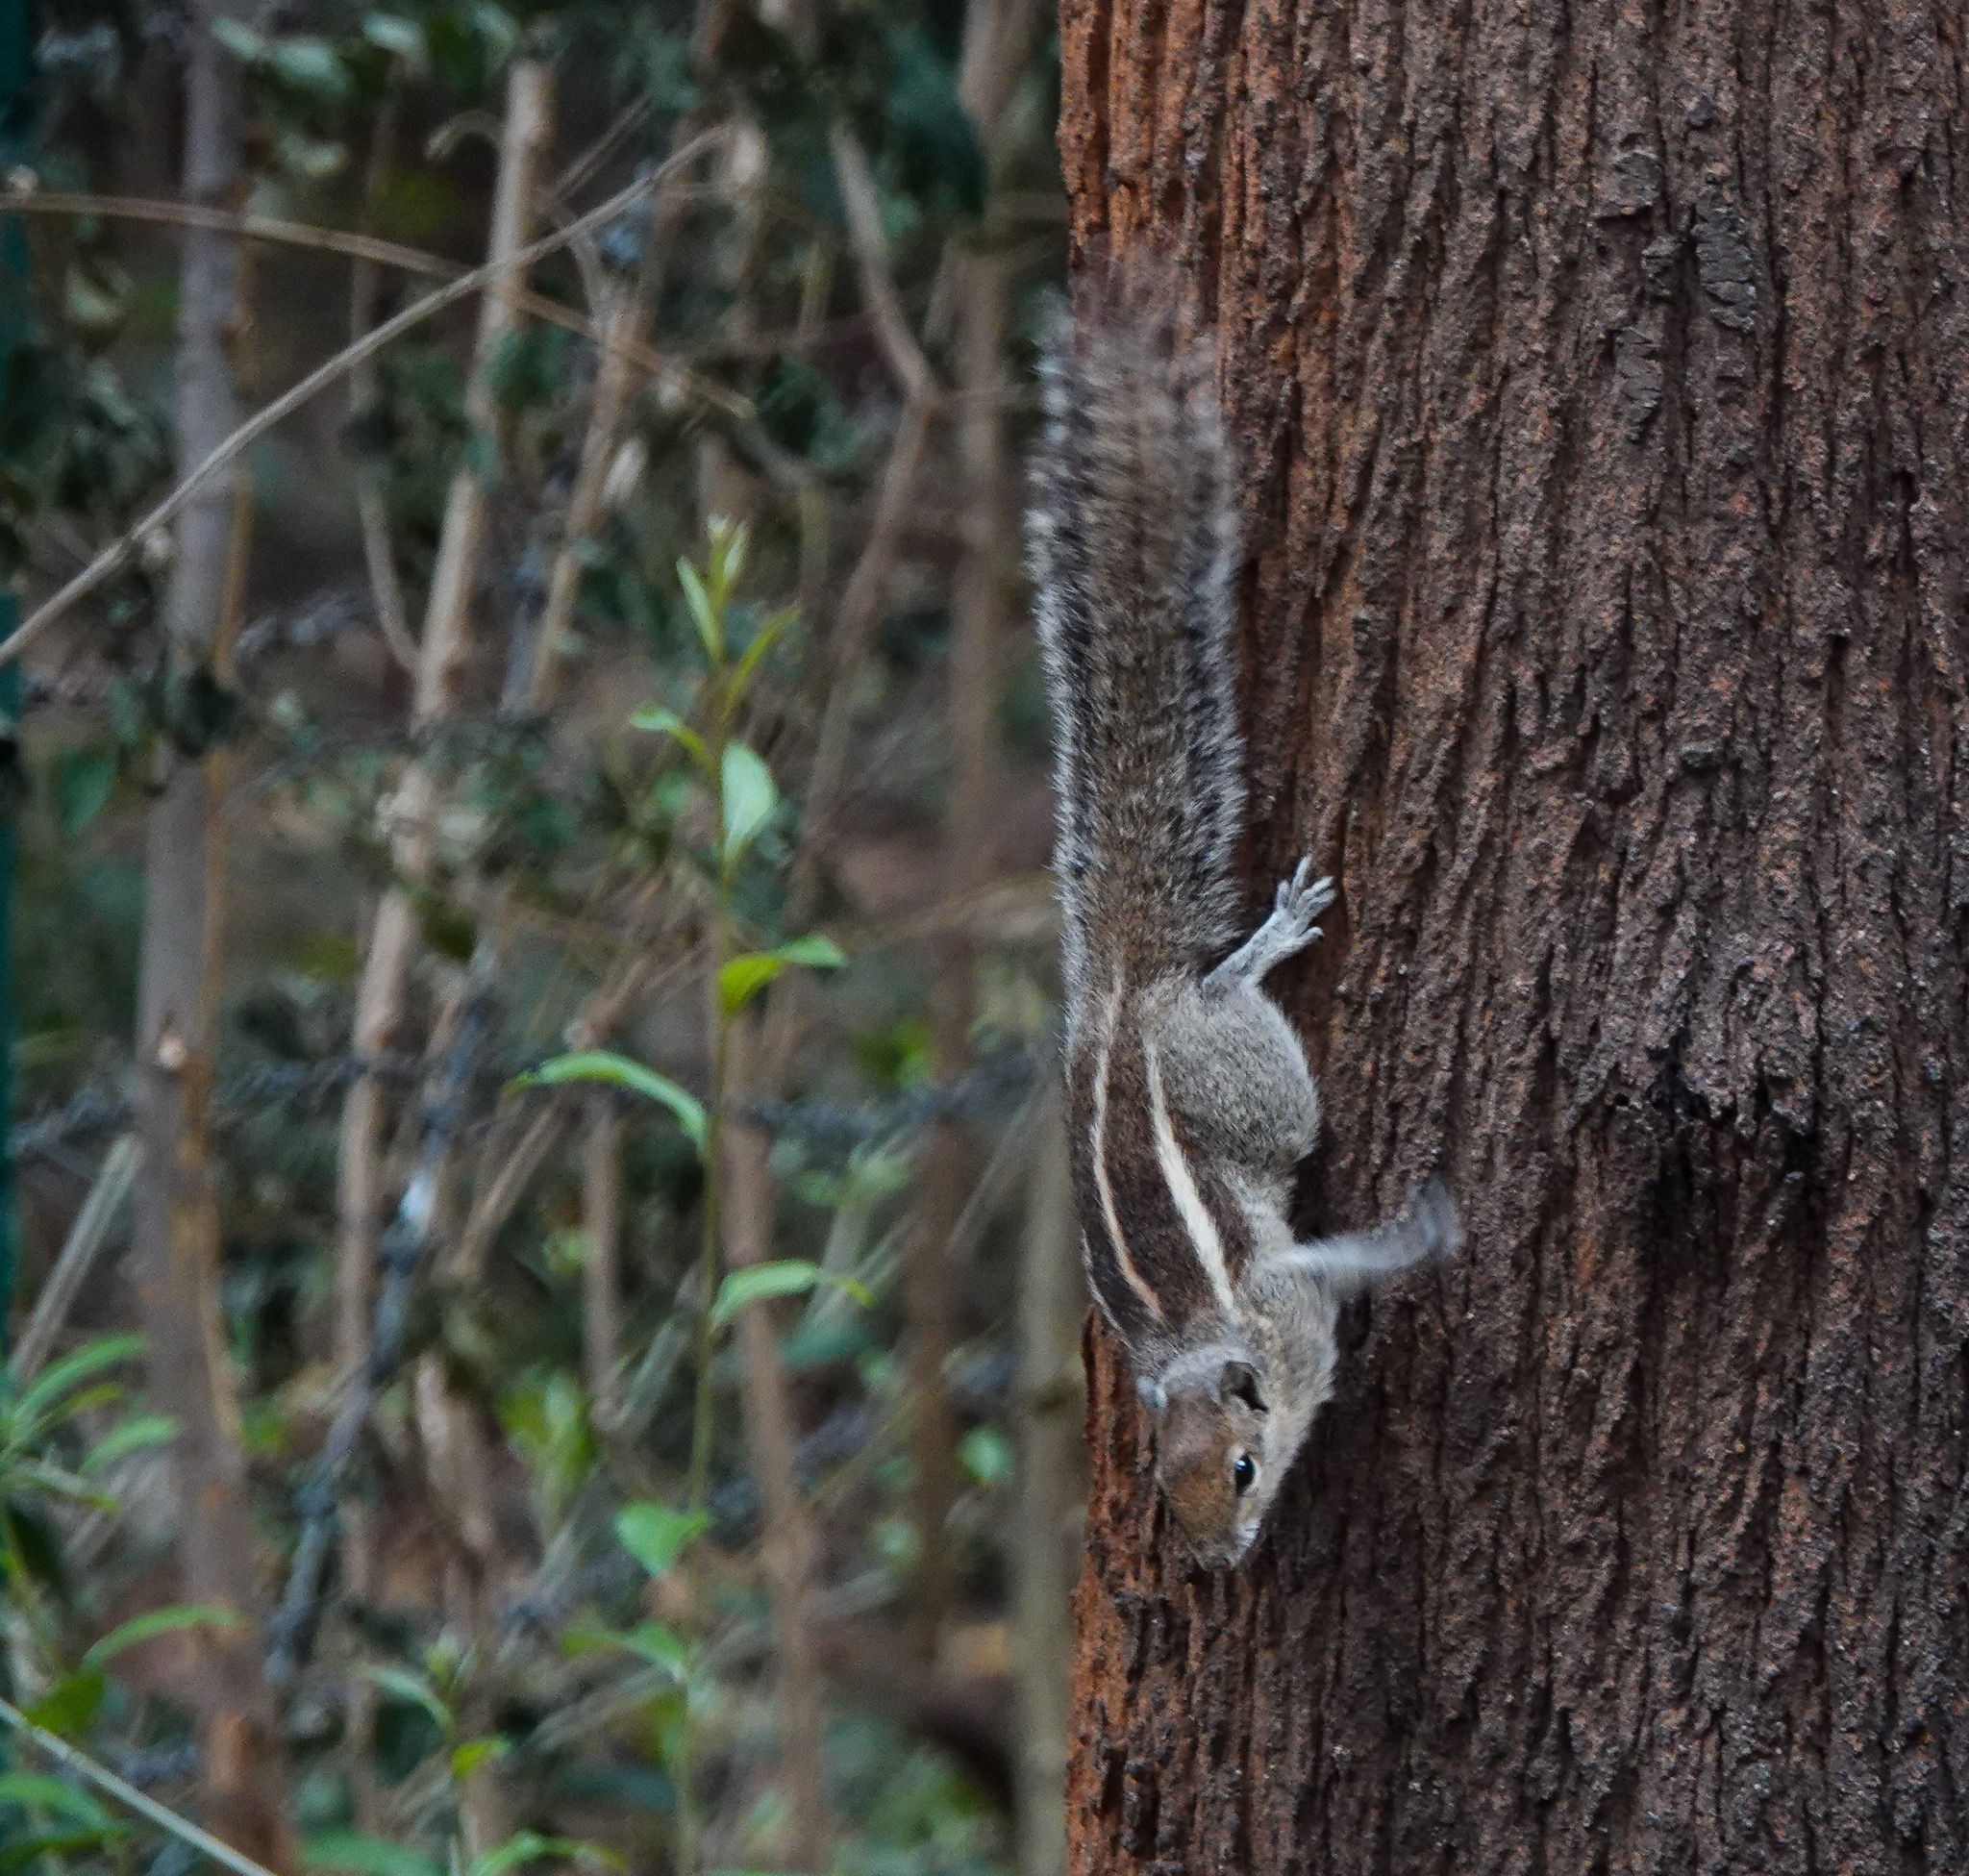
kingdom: Animalia
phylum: Chordata
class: Mammalia
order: Rodentia
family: Sciuridae
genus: Funambulus
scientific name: Funambulus palmarum
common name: Indian palm squirrel
